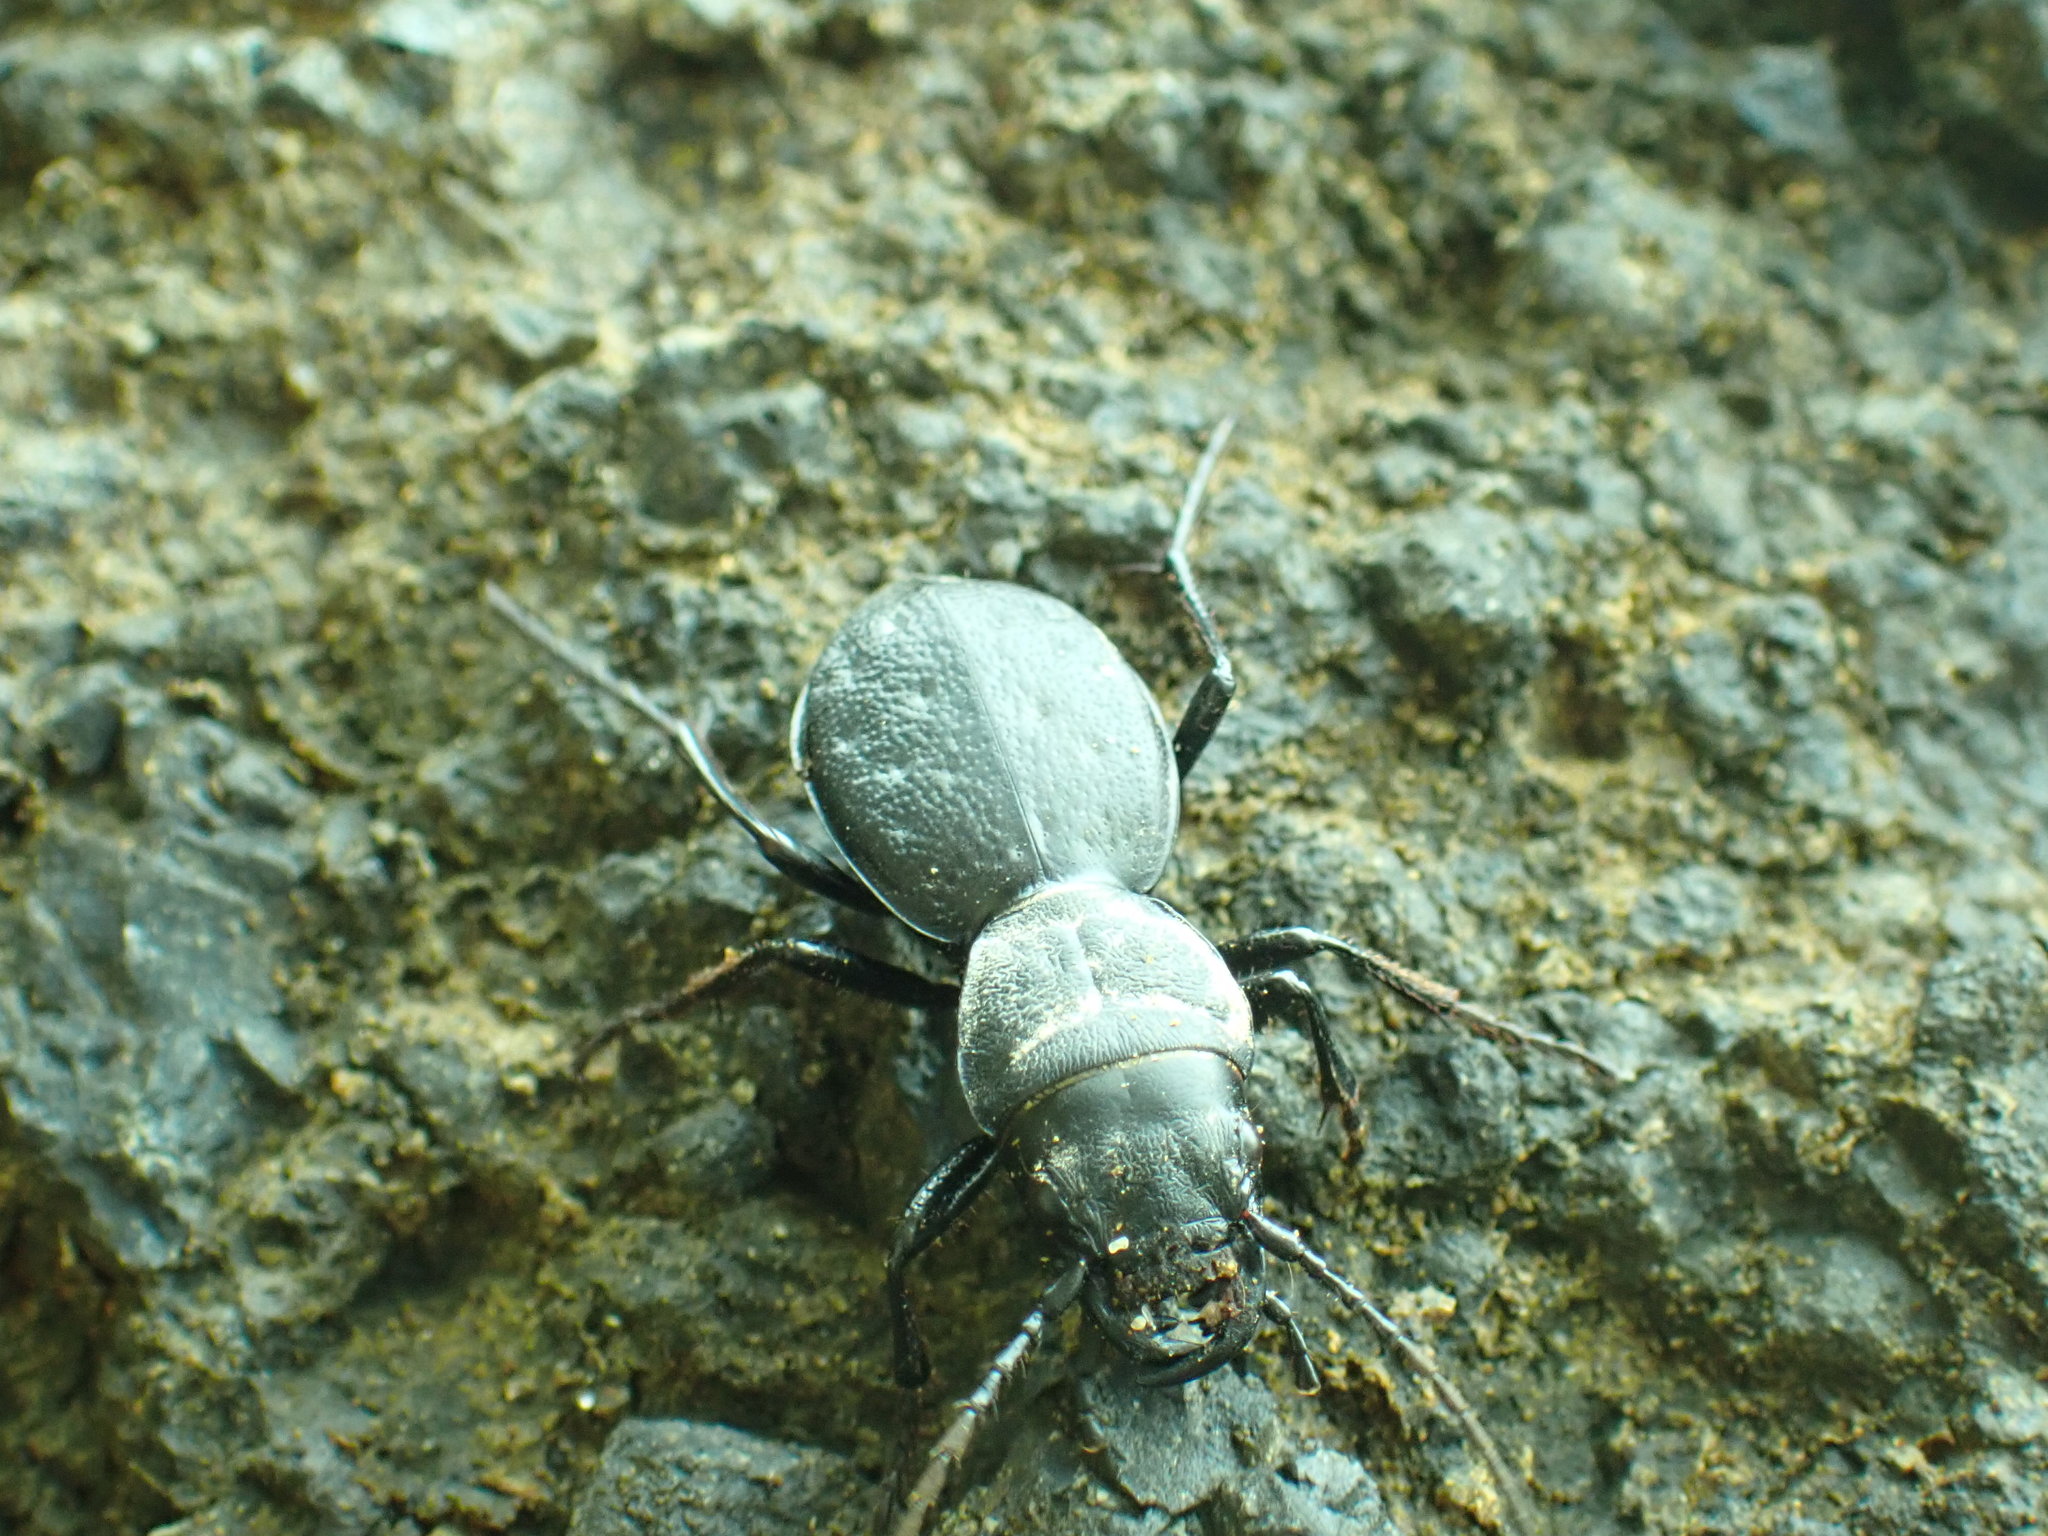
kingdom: Animalia
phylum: Arthropoda
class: Insecta
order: Coleoptera
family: Carabidae
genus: Omus
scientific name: Omus dejeanii
